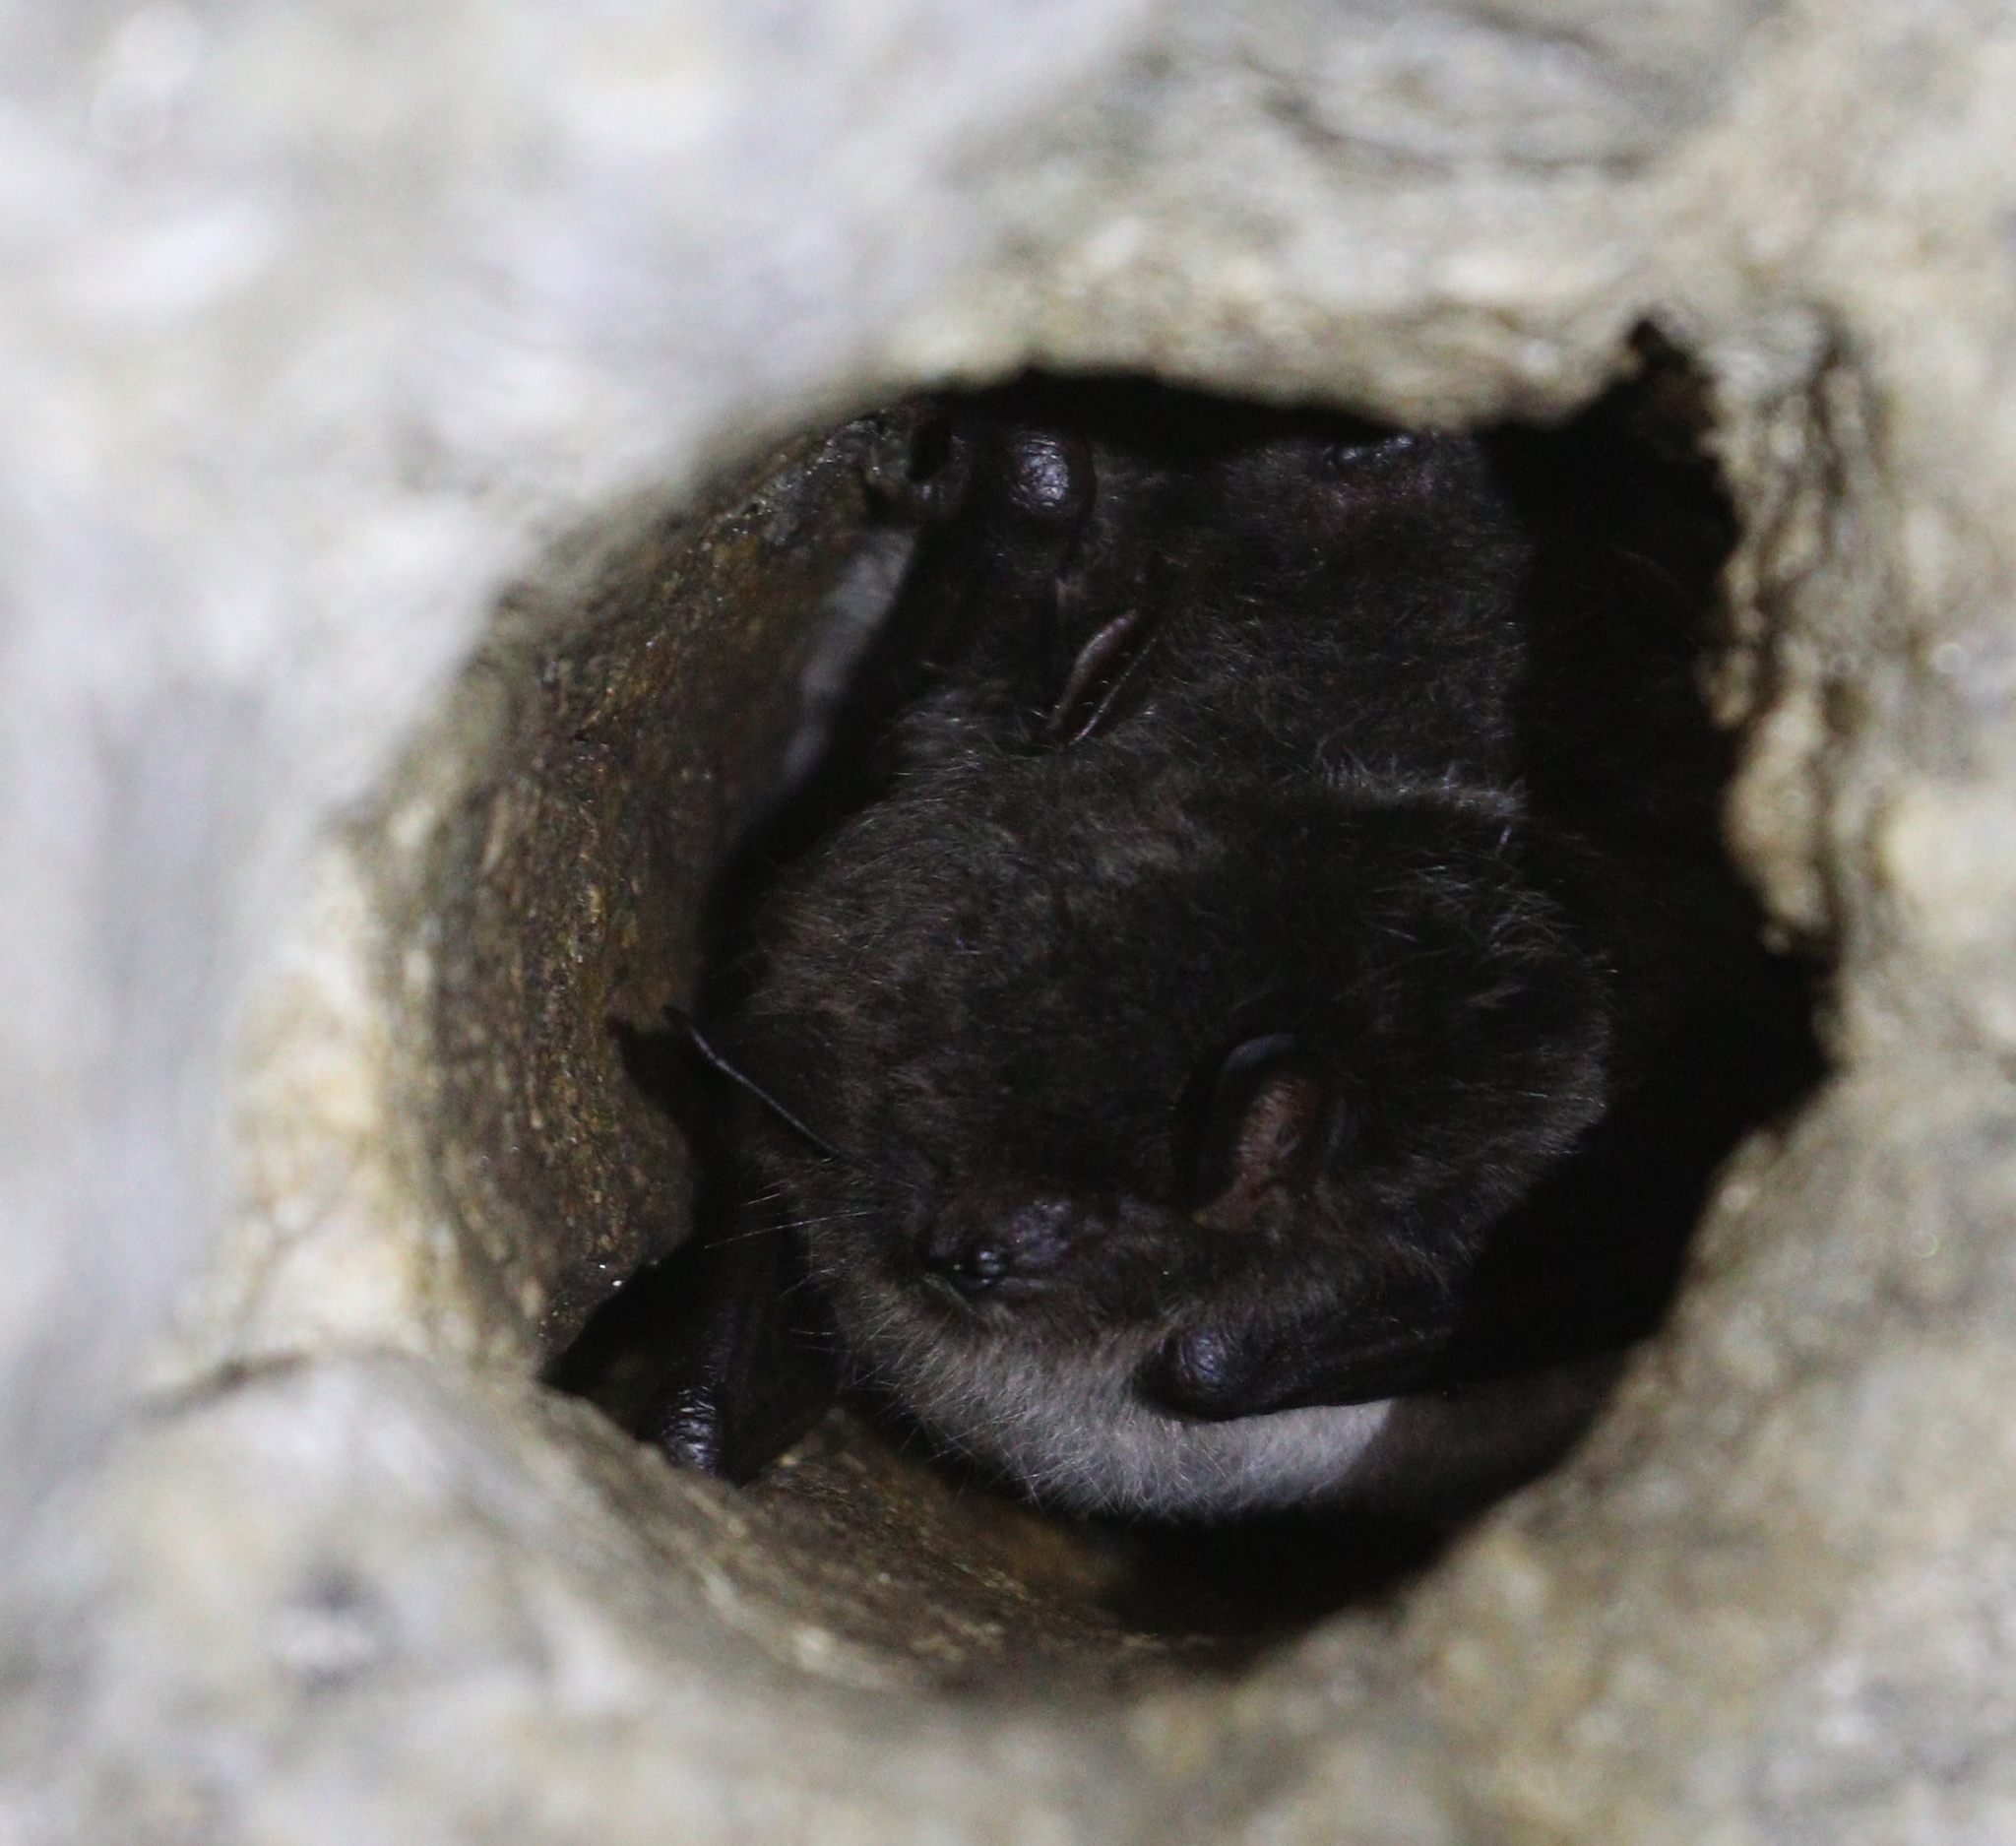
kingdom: Animalia
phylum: Chordata
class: Mammalia
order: Chiroptera
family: Vespertilionidae
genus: Myotis
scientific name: Myotis daubentonii
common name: Daubenton's myotis
